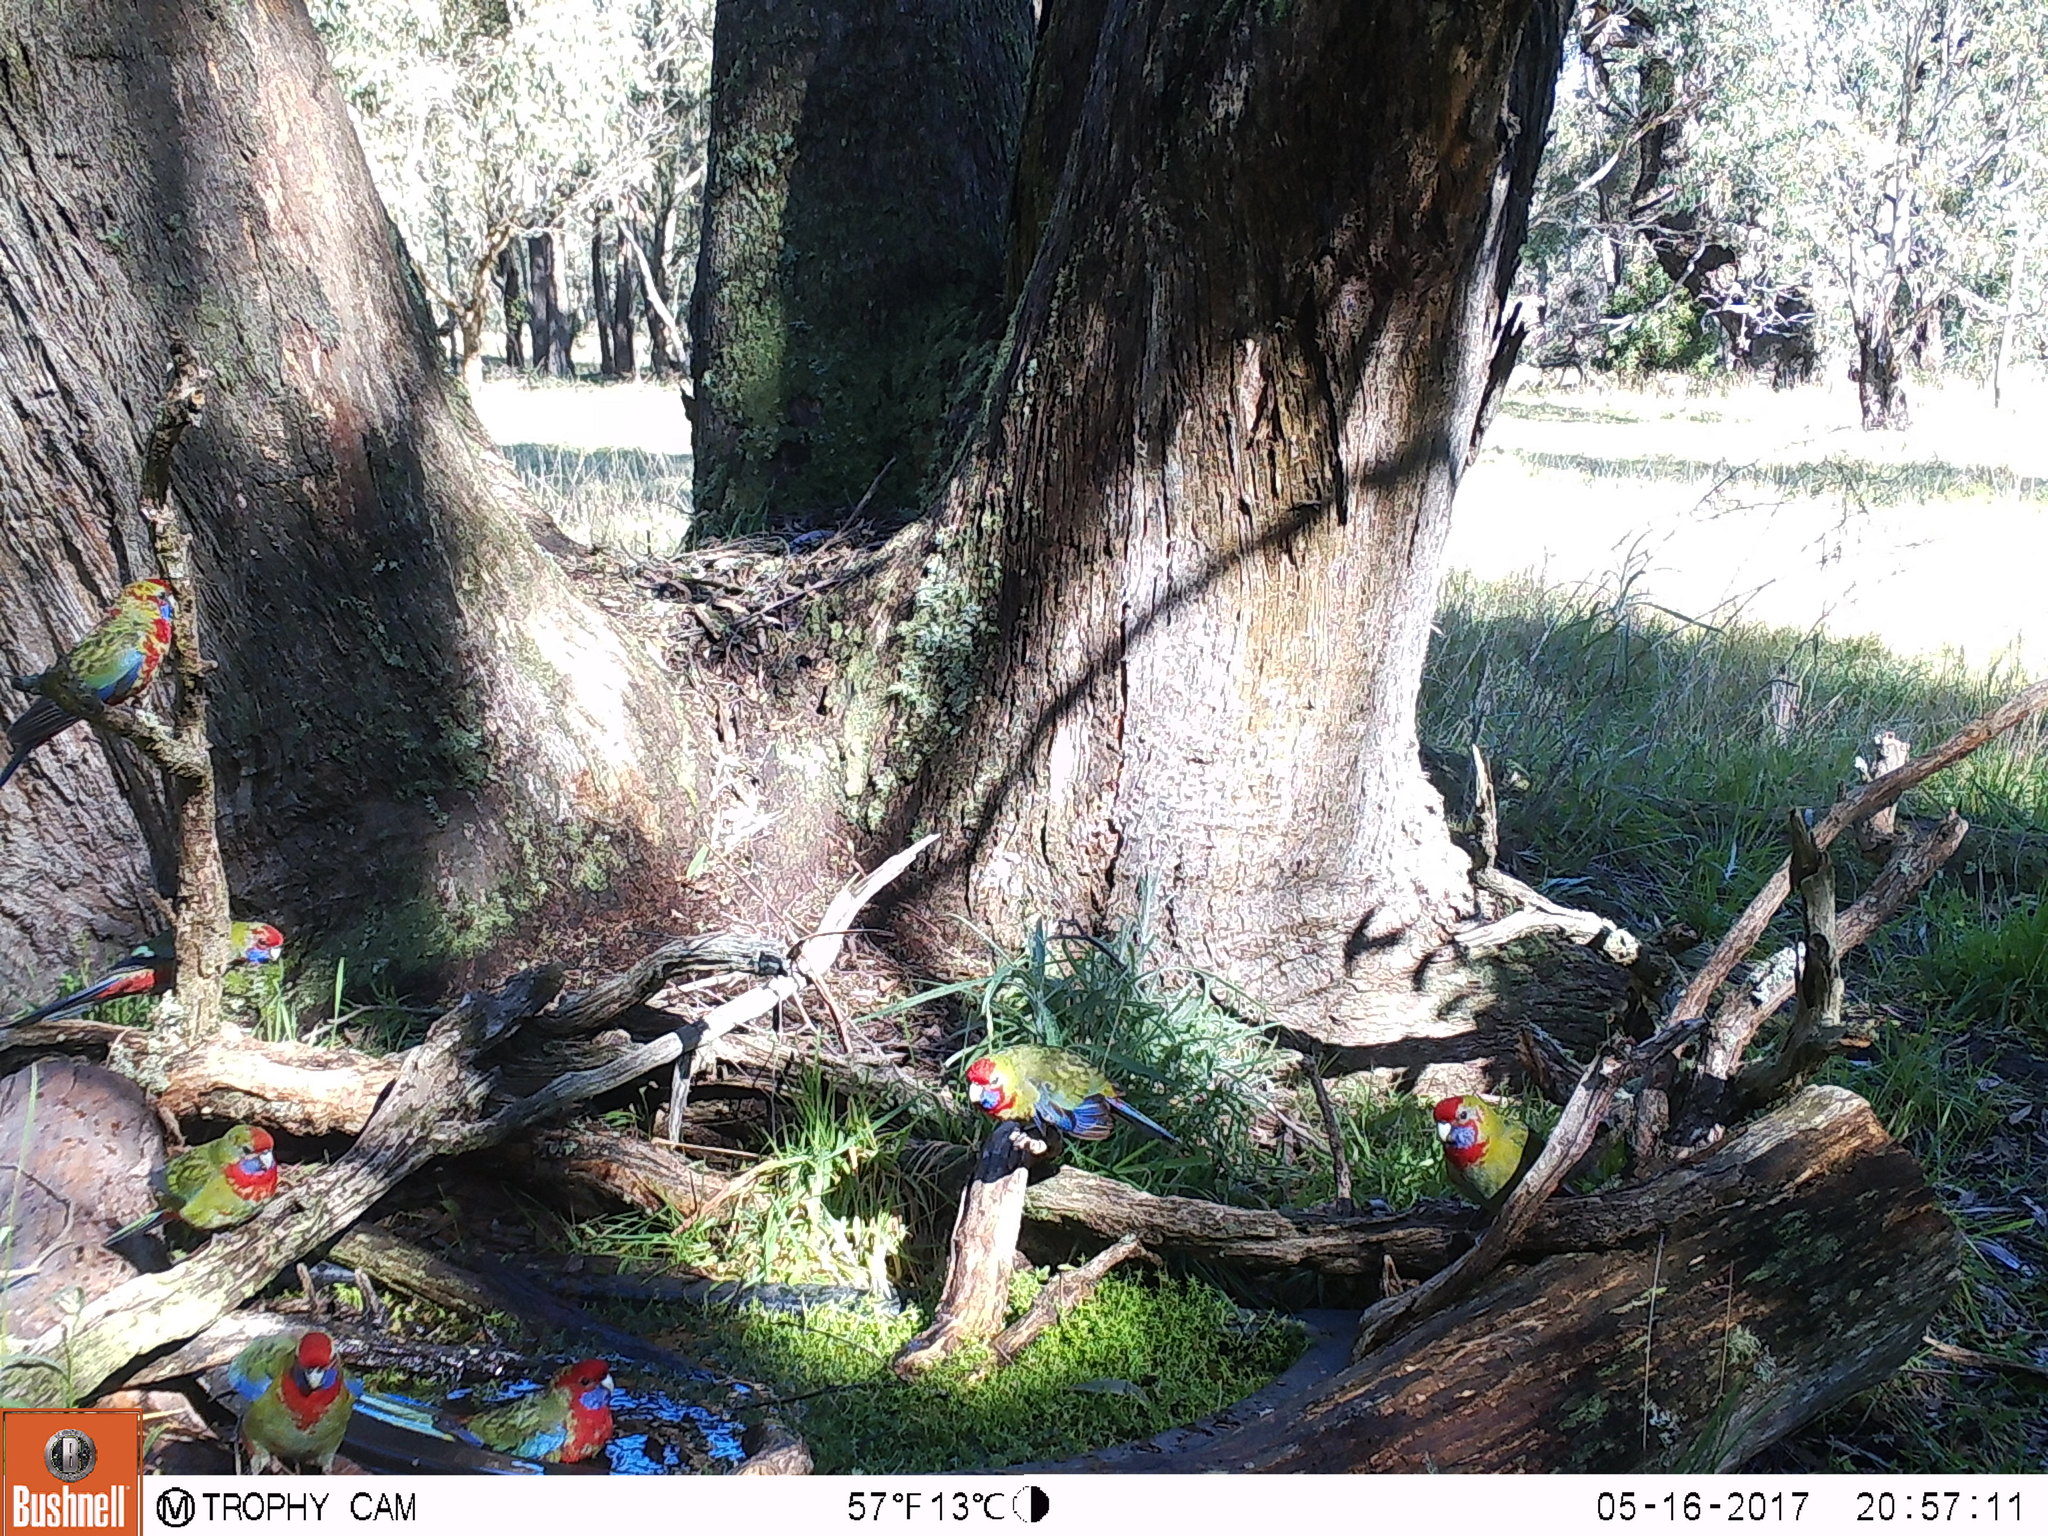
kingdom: Animalia
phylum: Chordata
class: Aves
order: Psittaciformes
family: Psittacidae
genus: Platycercus
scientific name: Platycercus elegans
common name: Crimson rosella
